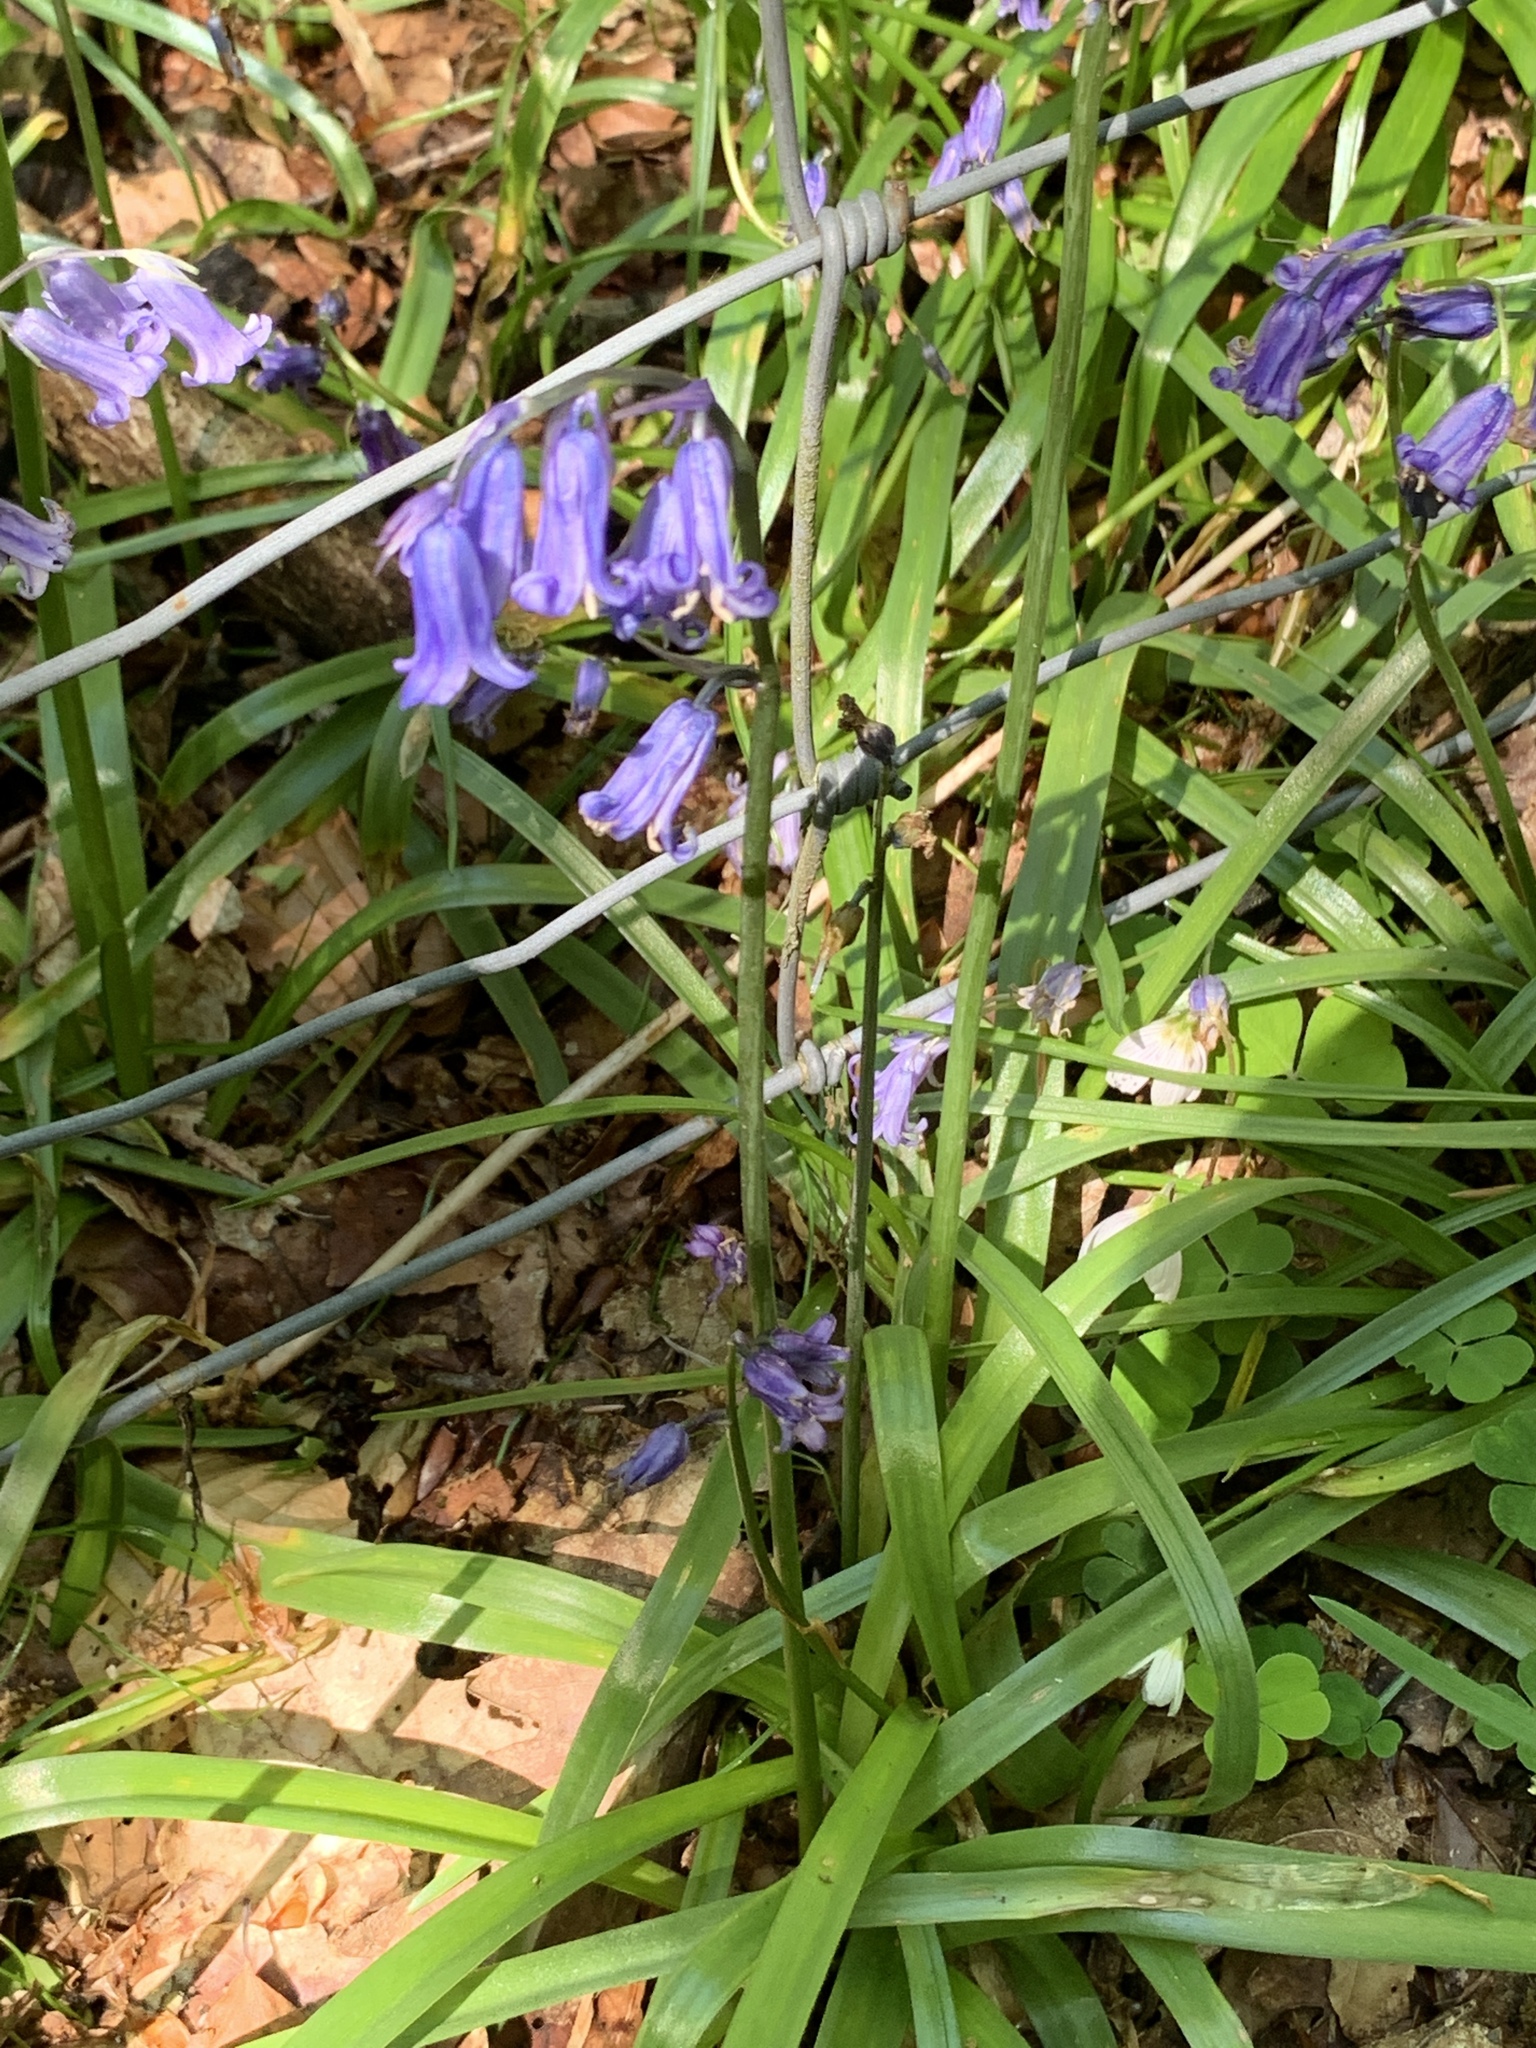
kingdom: Plantae
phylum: Tracheophyta
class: Liliopsida
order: Asparagales
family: Asparagaceae
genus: Hyacinthoides
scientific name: Hyacinthoides non-scripta
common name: Bluebell
